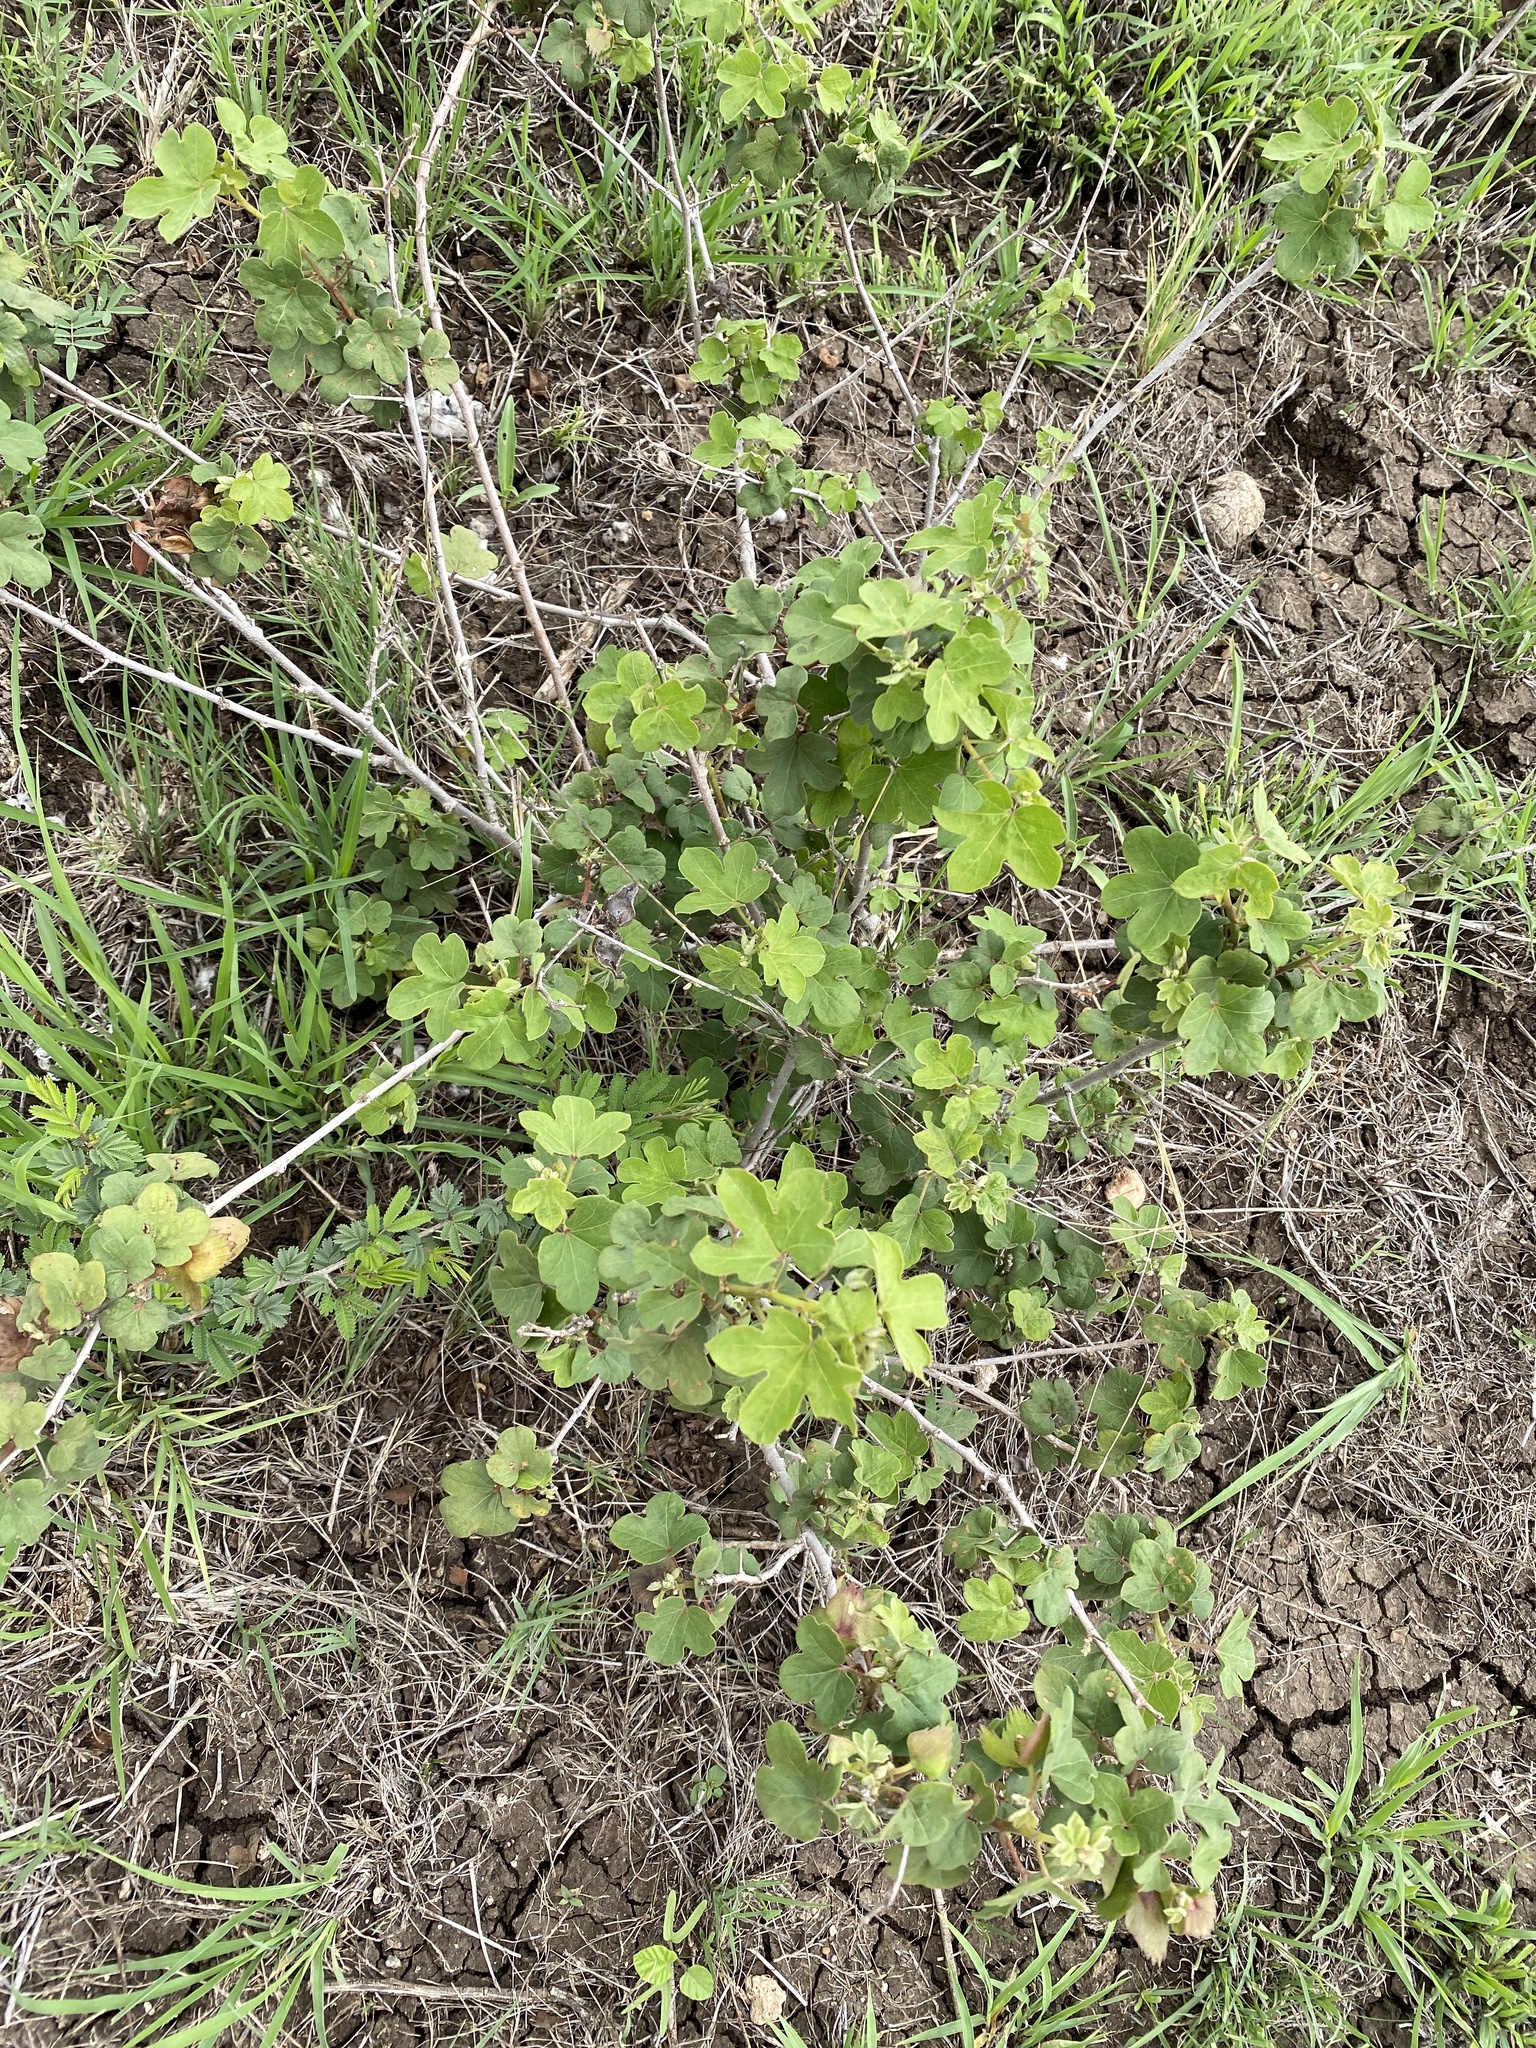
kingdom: Plantae
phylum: Tracheophyta
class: Magnoliopsida
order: Malvales
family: Malvaceae
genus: Gossypium
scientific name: Gossypium herbaceum
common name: Levant cotton
